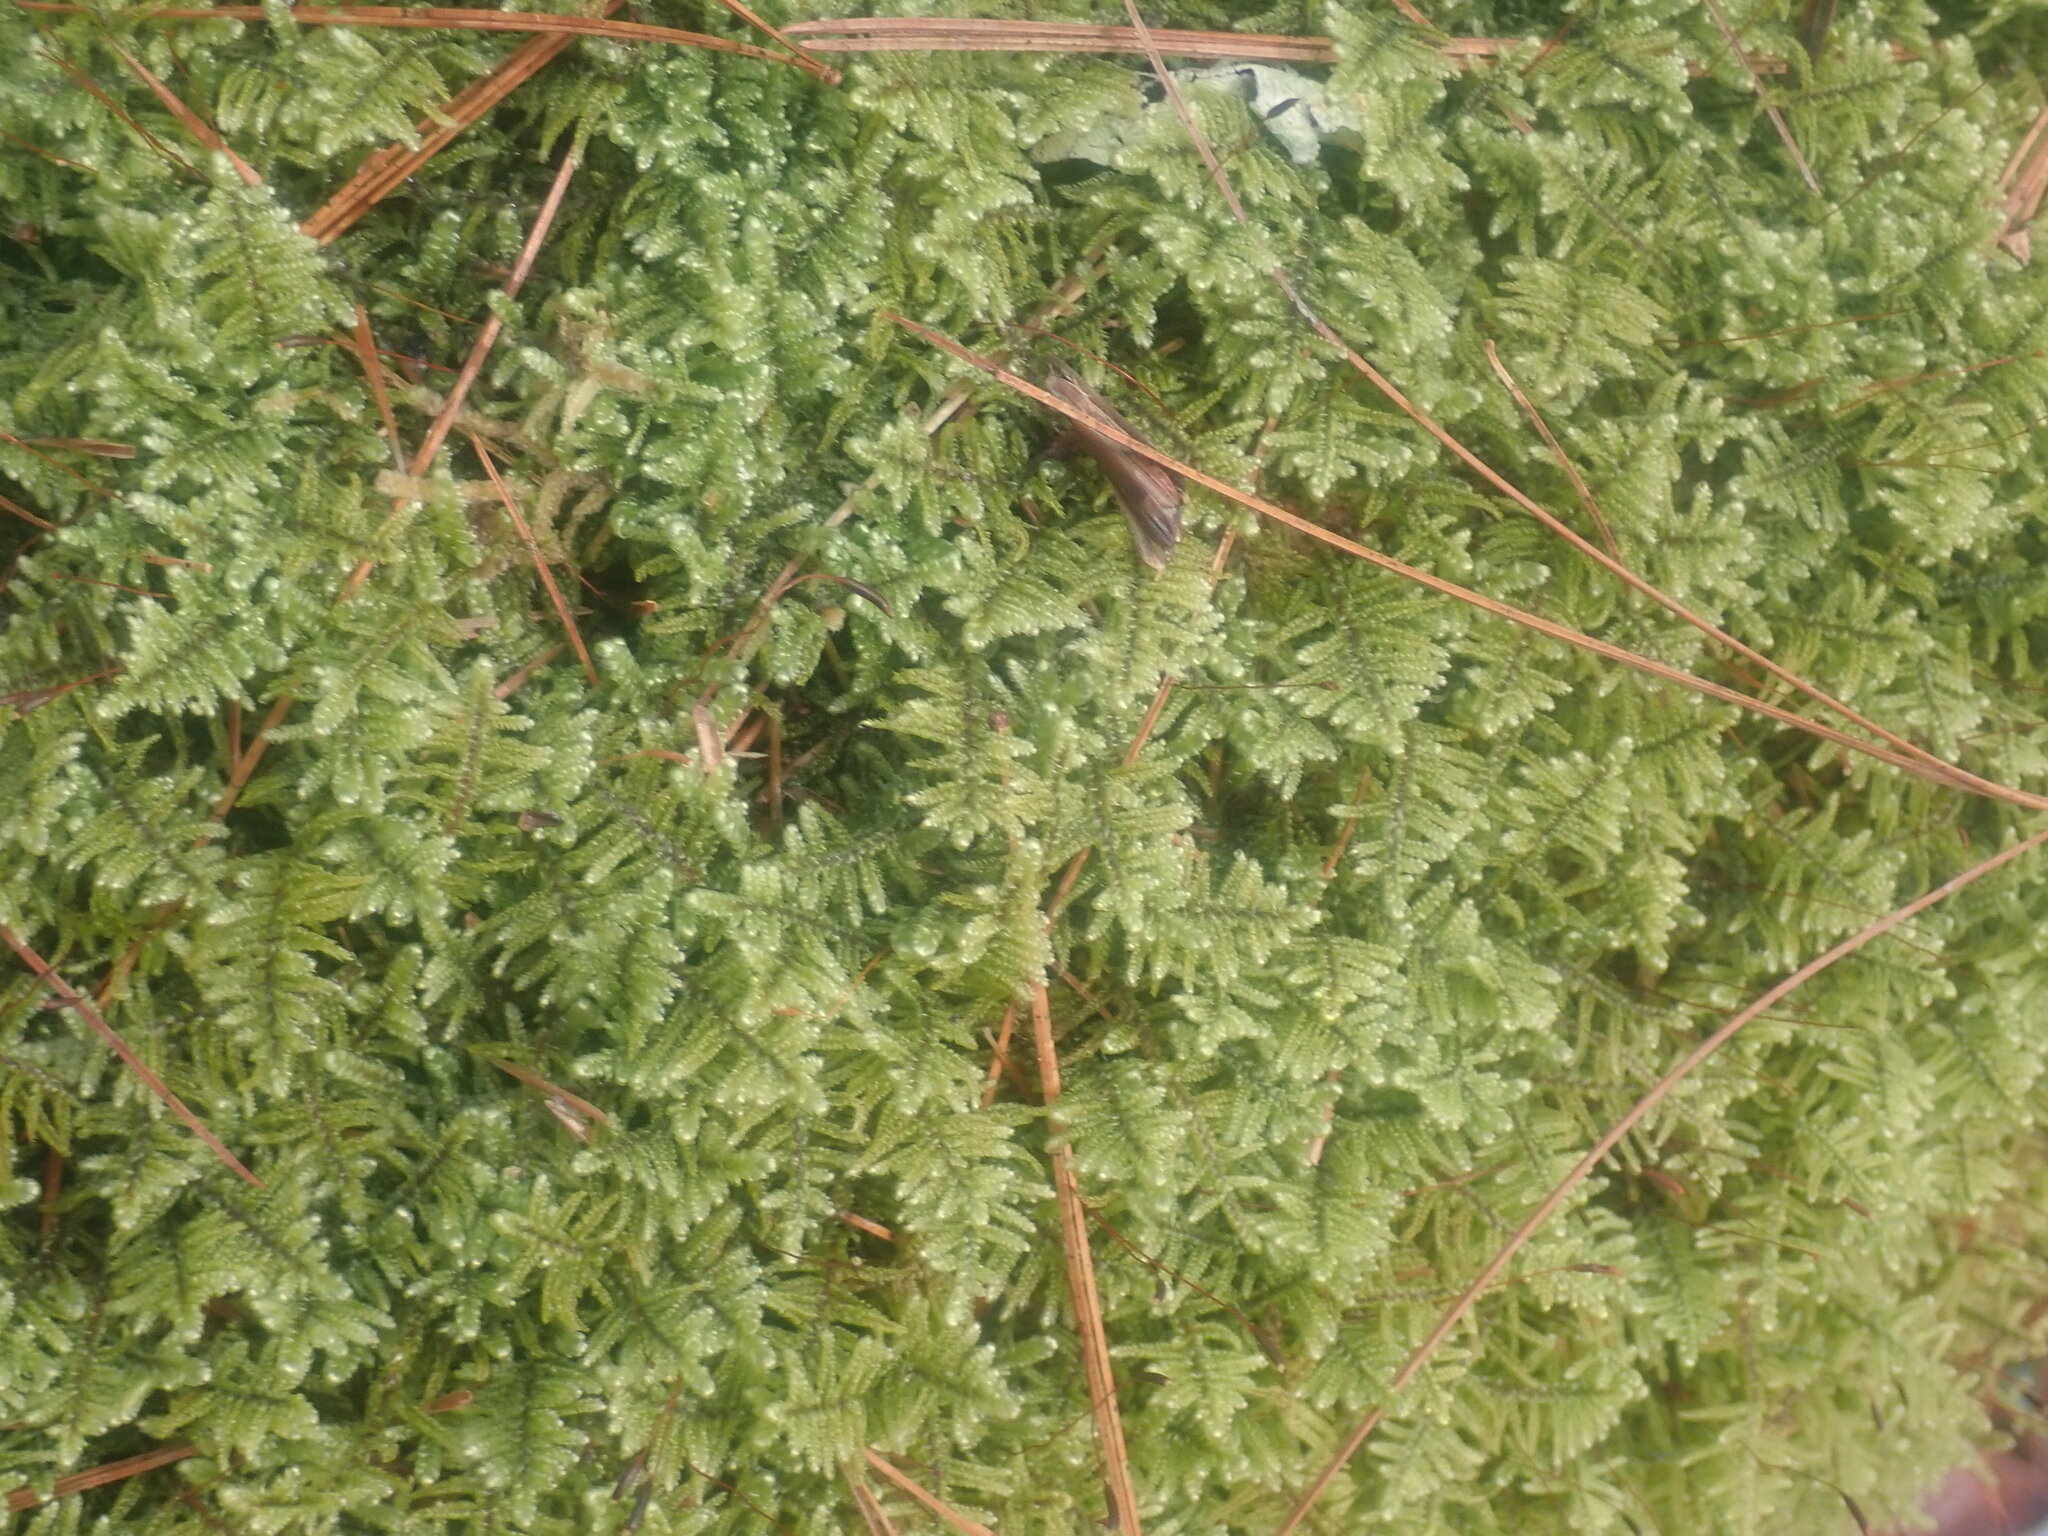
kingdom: Plantae
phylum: Bryophyta
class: Bryopsida
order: Hypnales
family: Callicladiaceae
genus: Callicladium
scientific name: Callicladium imponens
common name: Brocade moss
